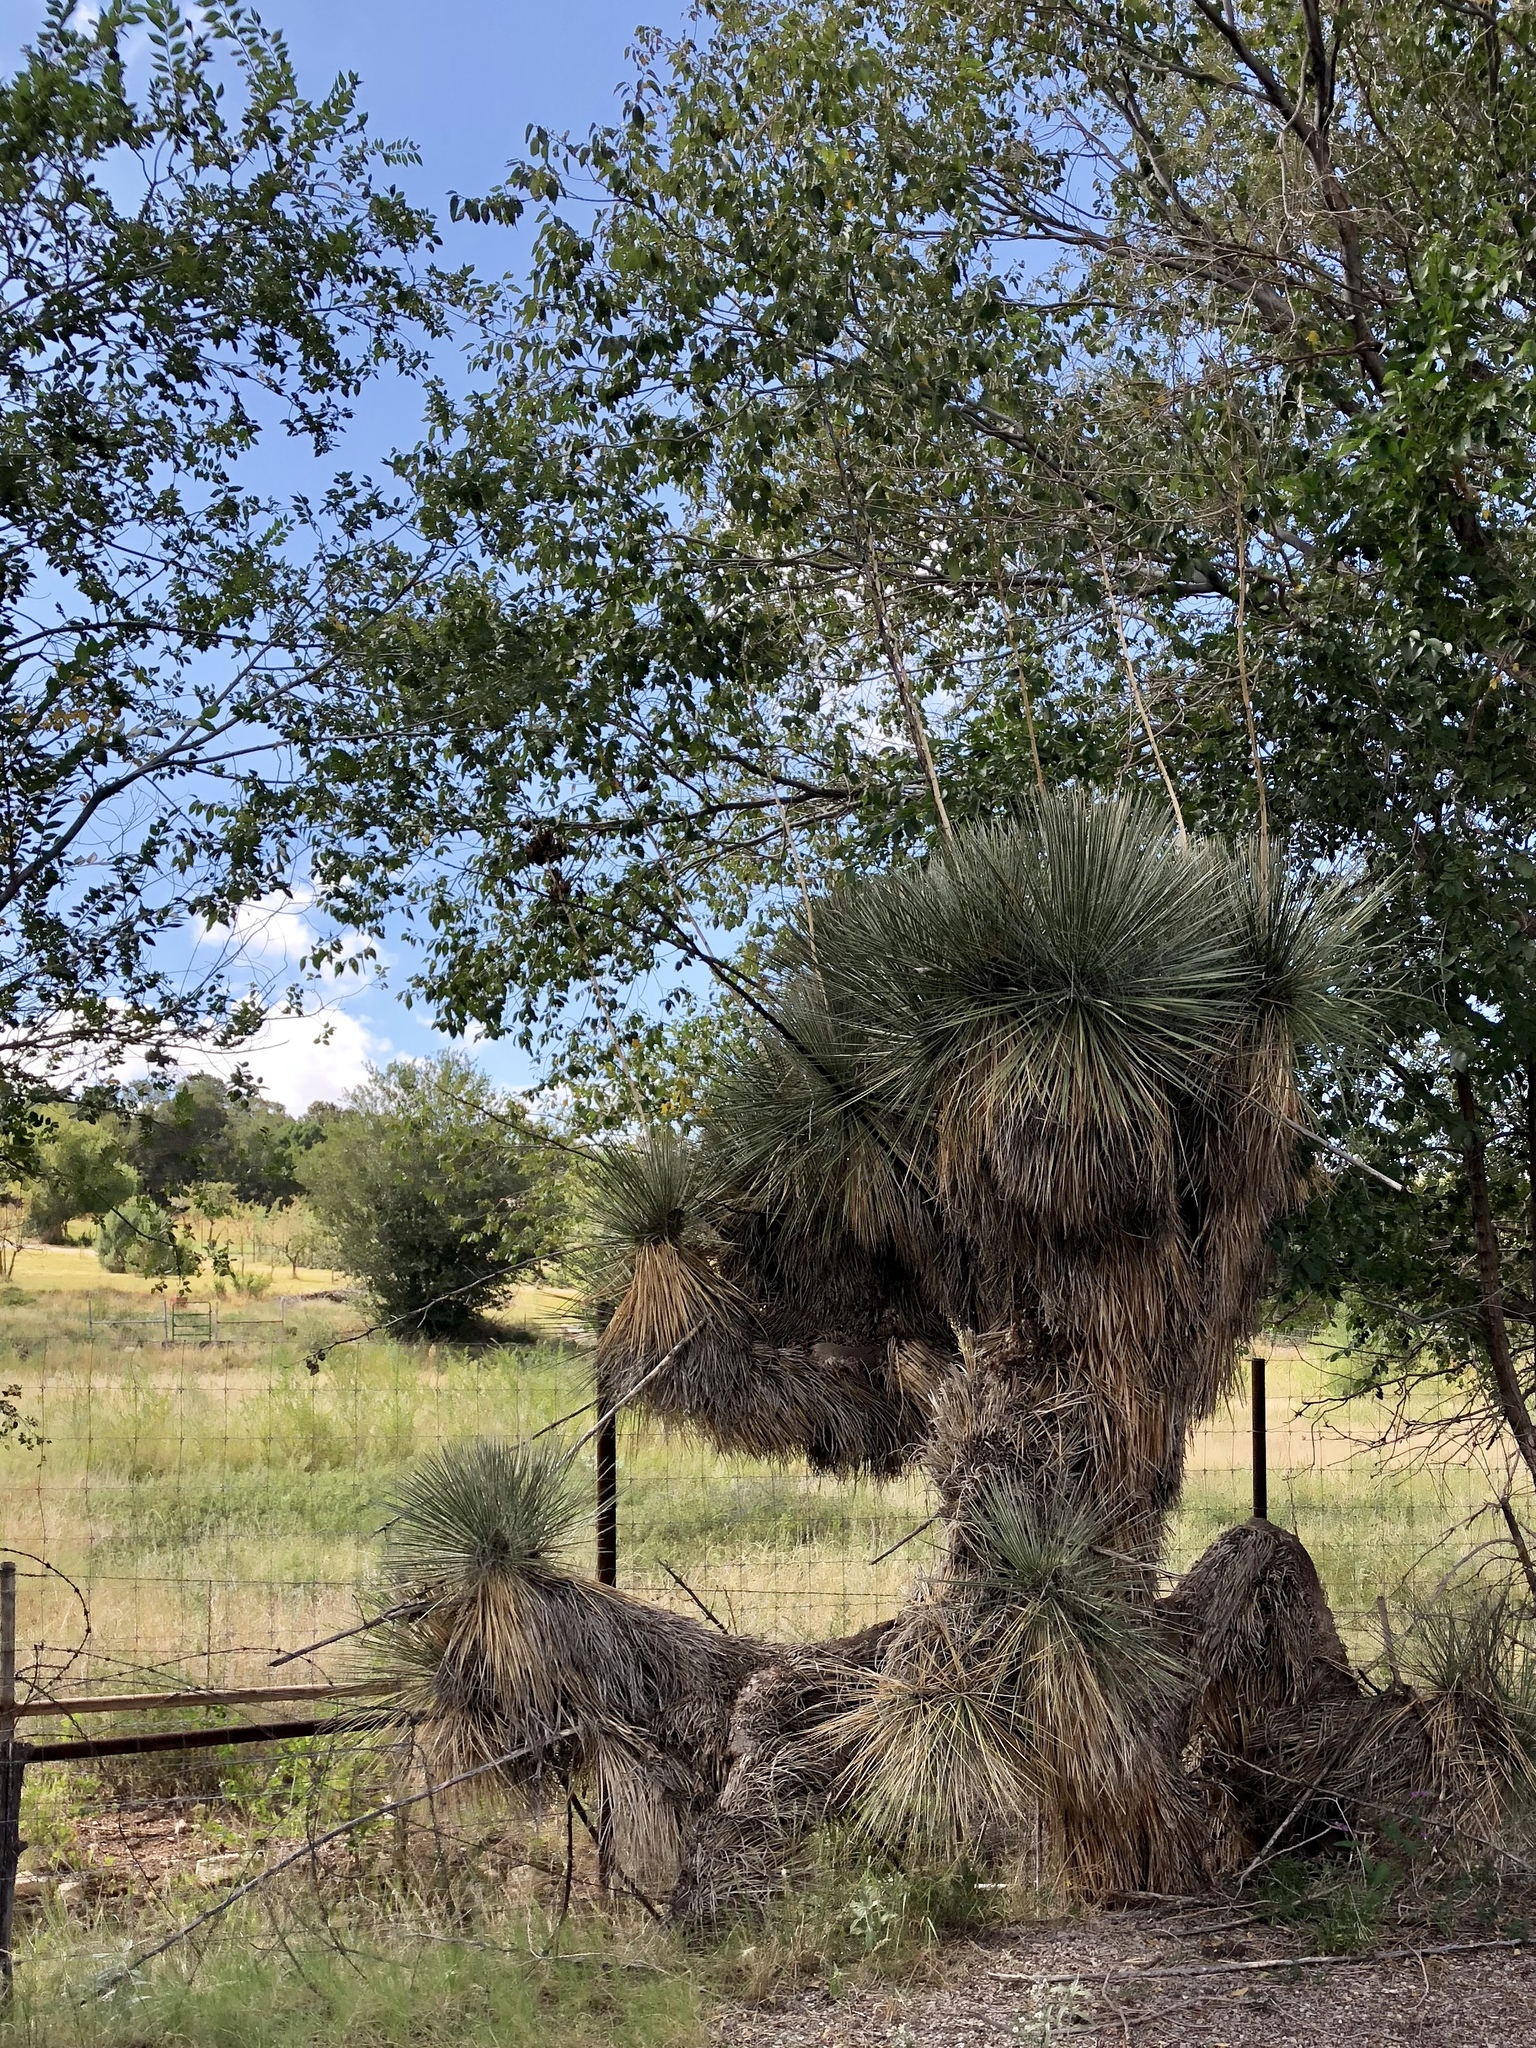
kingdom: Plantae
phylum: Tracheophyta
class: Liliopsida
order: Asparagales
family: Asparagaceae
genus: Yucca
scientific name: Yucca elata
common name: Palmella
